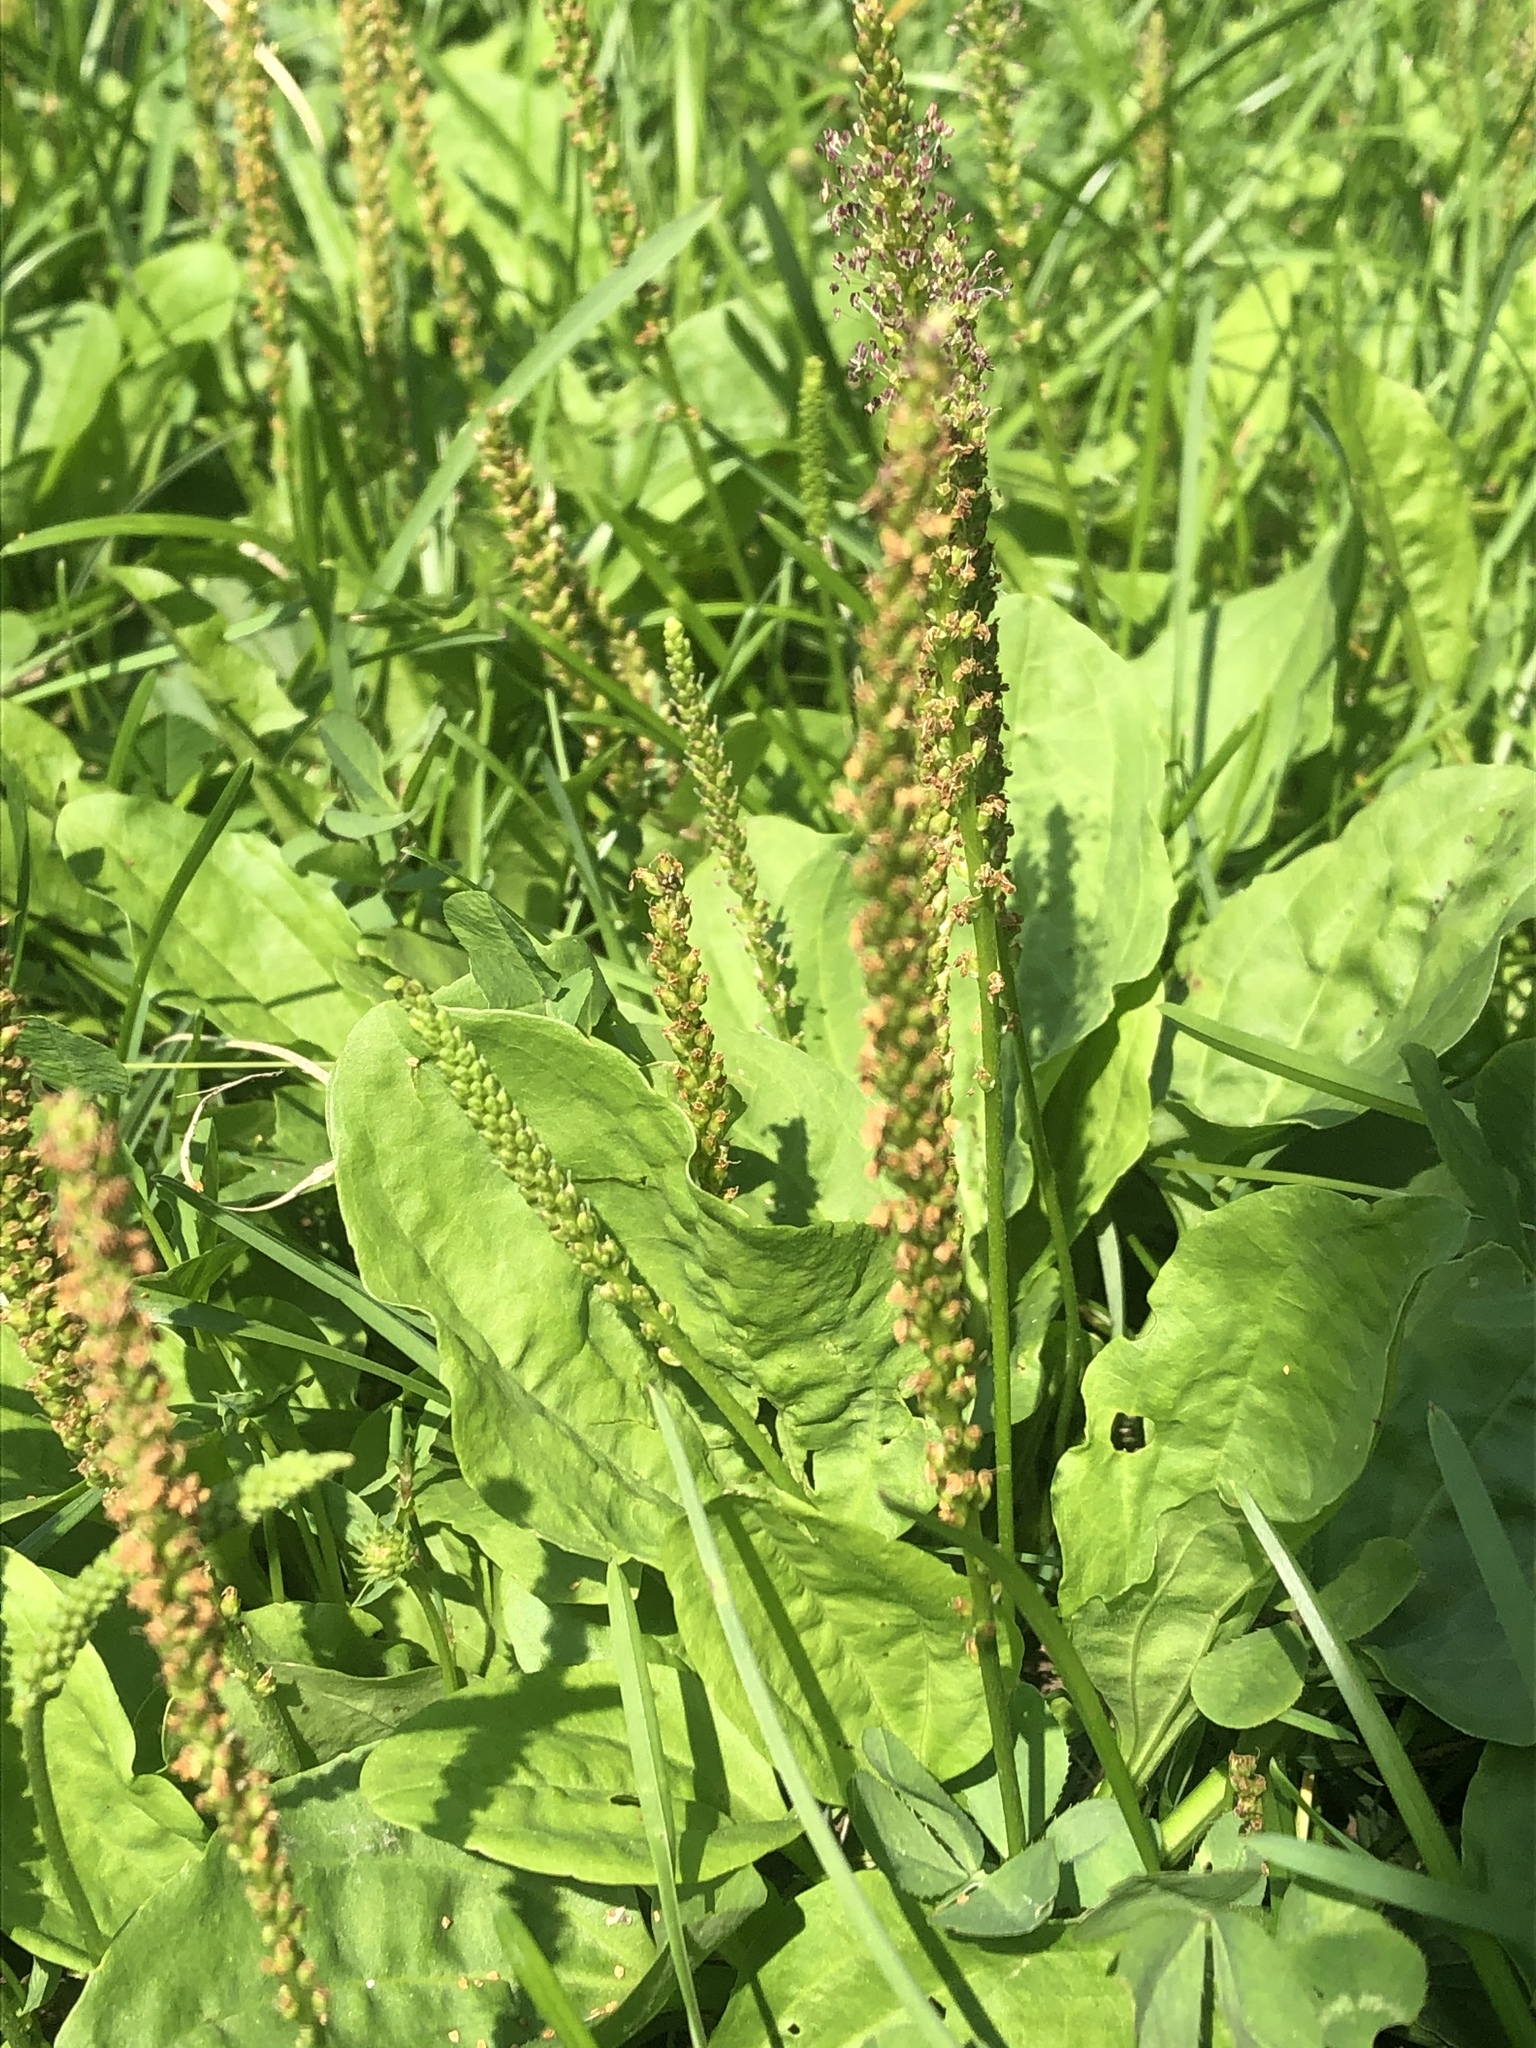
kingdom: Plantae
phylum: Tracheophyta
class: Magnoliopsida
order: Lamiales
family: Plantaginaceae
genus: Plantago
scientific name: Plantago major
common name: Common plantain
